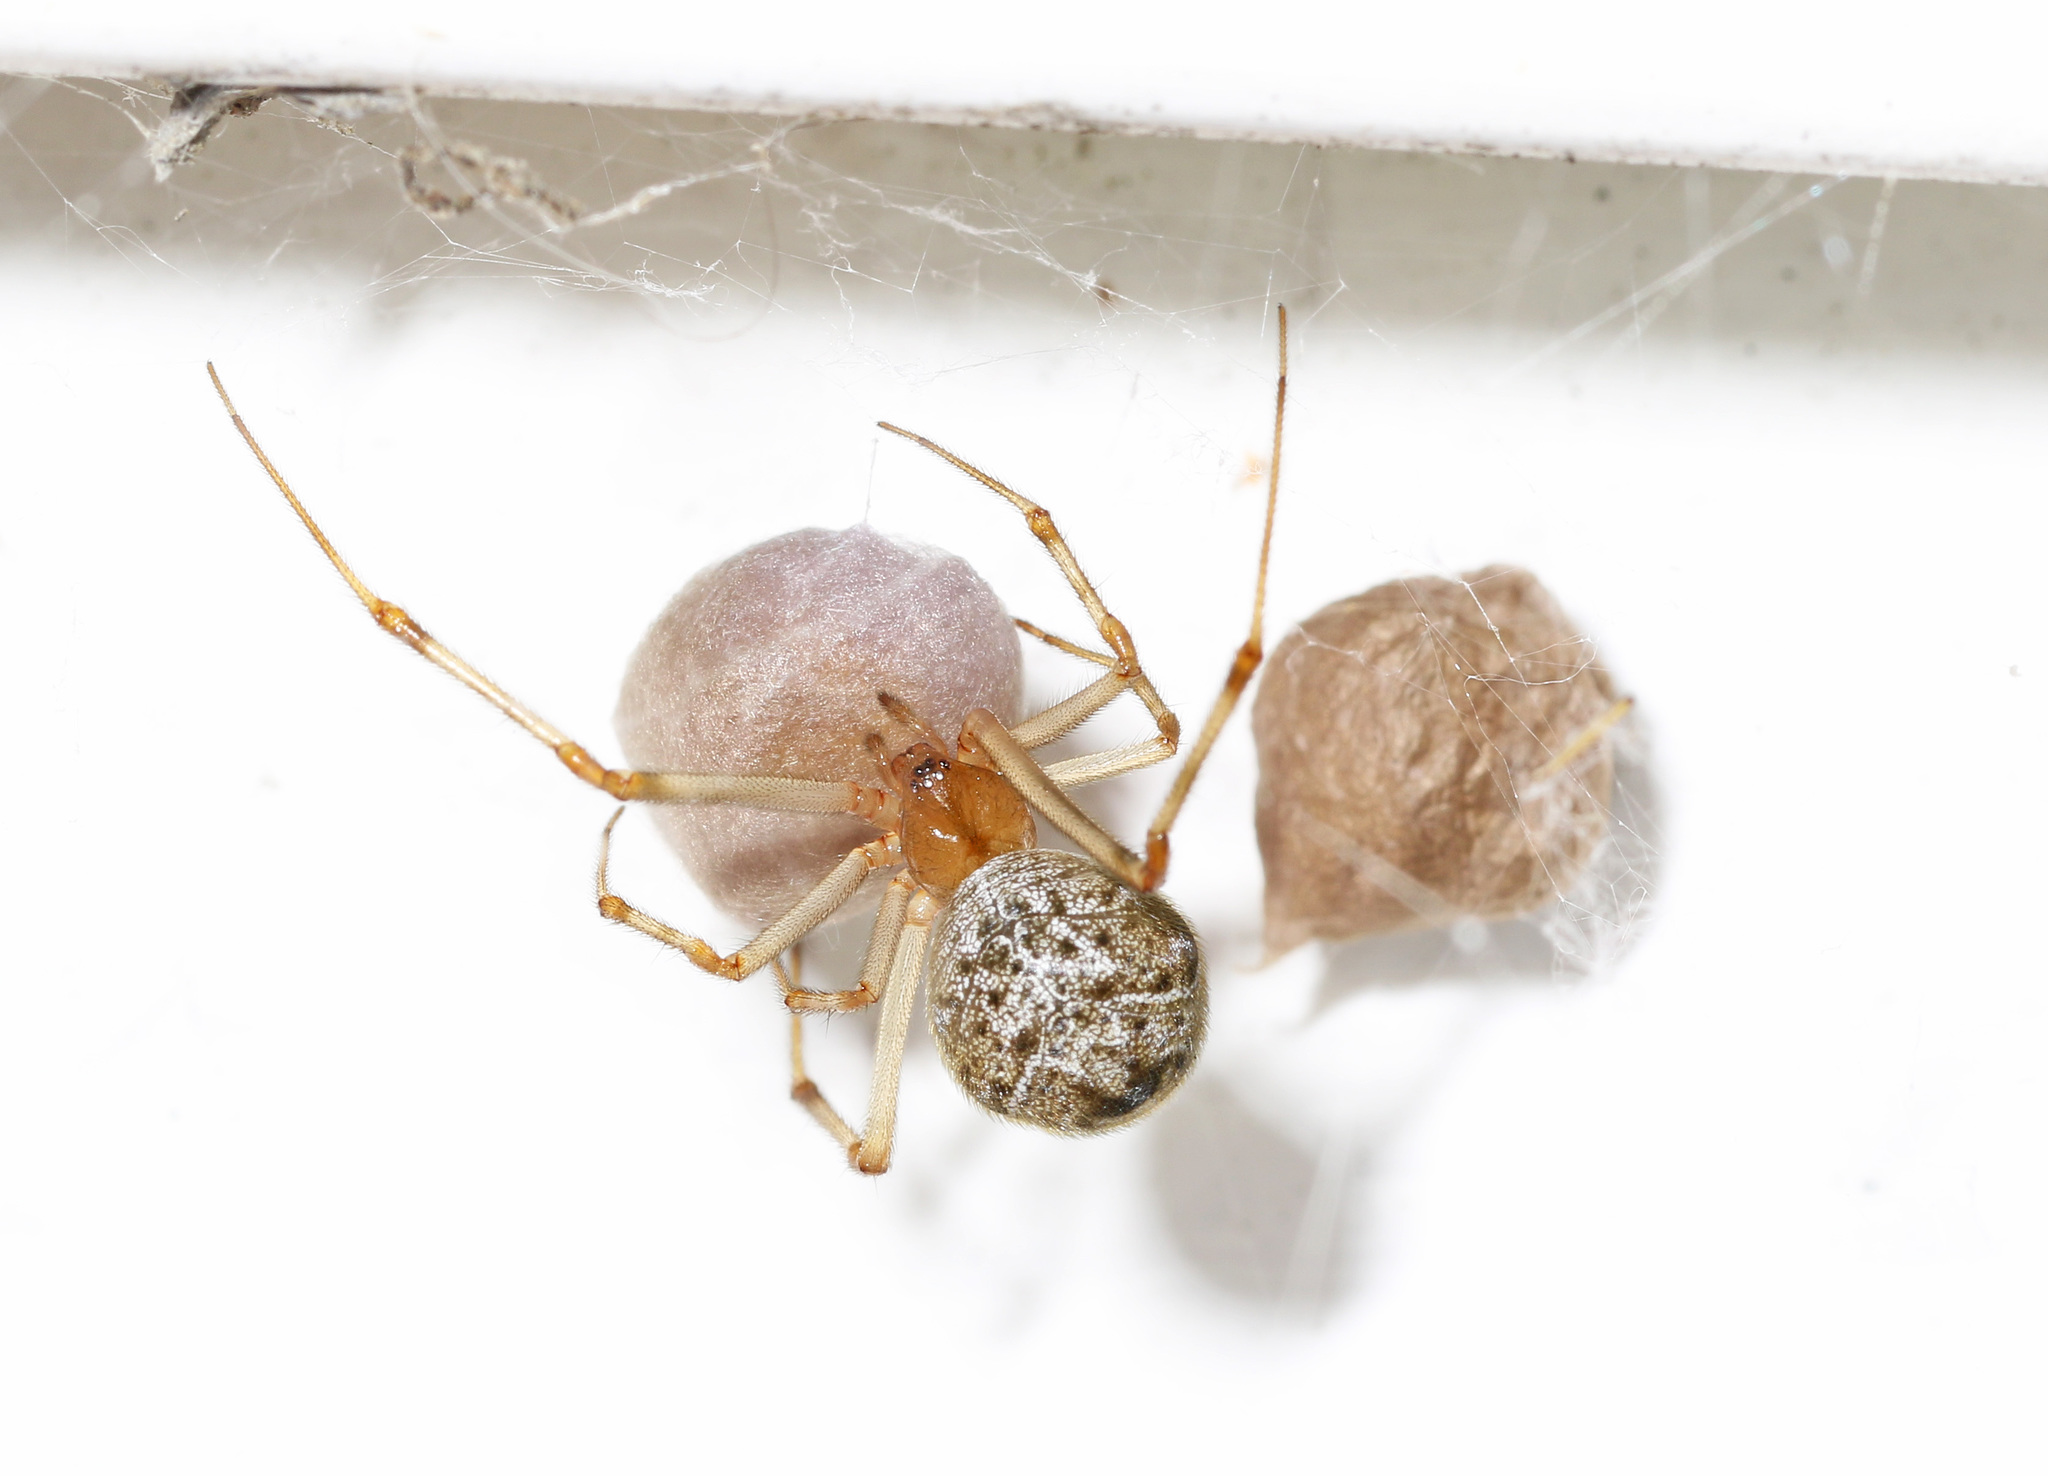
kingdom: Animalia
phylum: Arthropoda
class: Arachnida
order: Araneae
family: Theridiidae
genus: Parasteatoda
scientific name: Parasteatoda tepidariorum
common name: Common house spider
